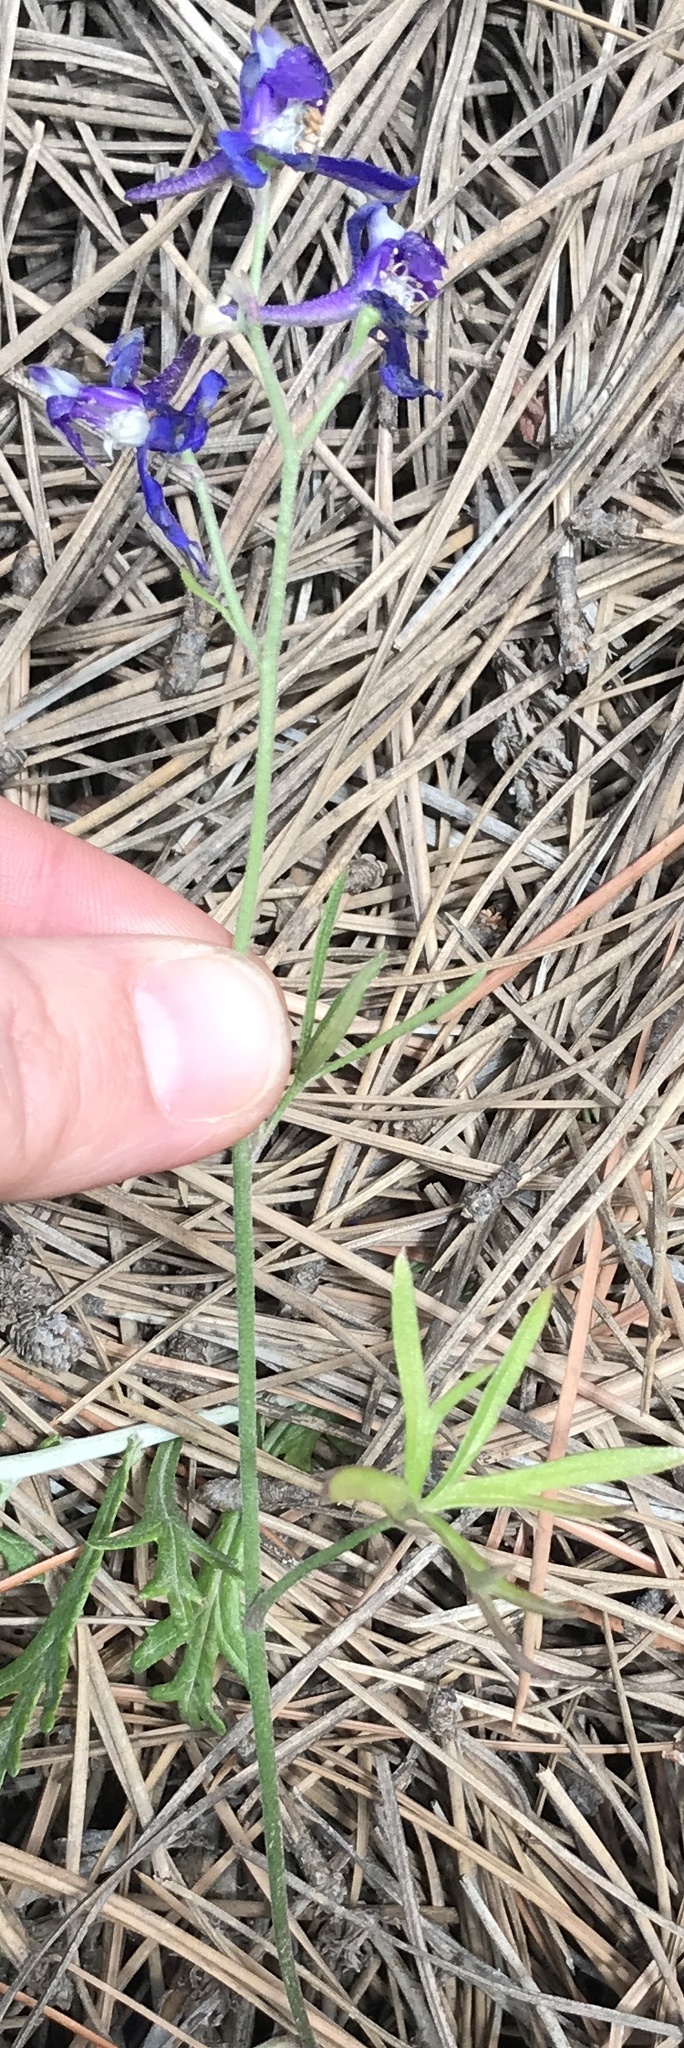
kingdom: Plantae
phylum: Tracheophyta
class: Magnoliopsida
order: Ranunculales
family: Ranunculaceae
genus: Delphinium
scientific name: Delphinium parryi
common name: Parry's larkspur
